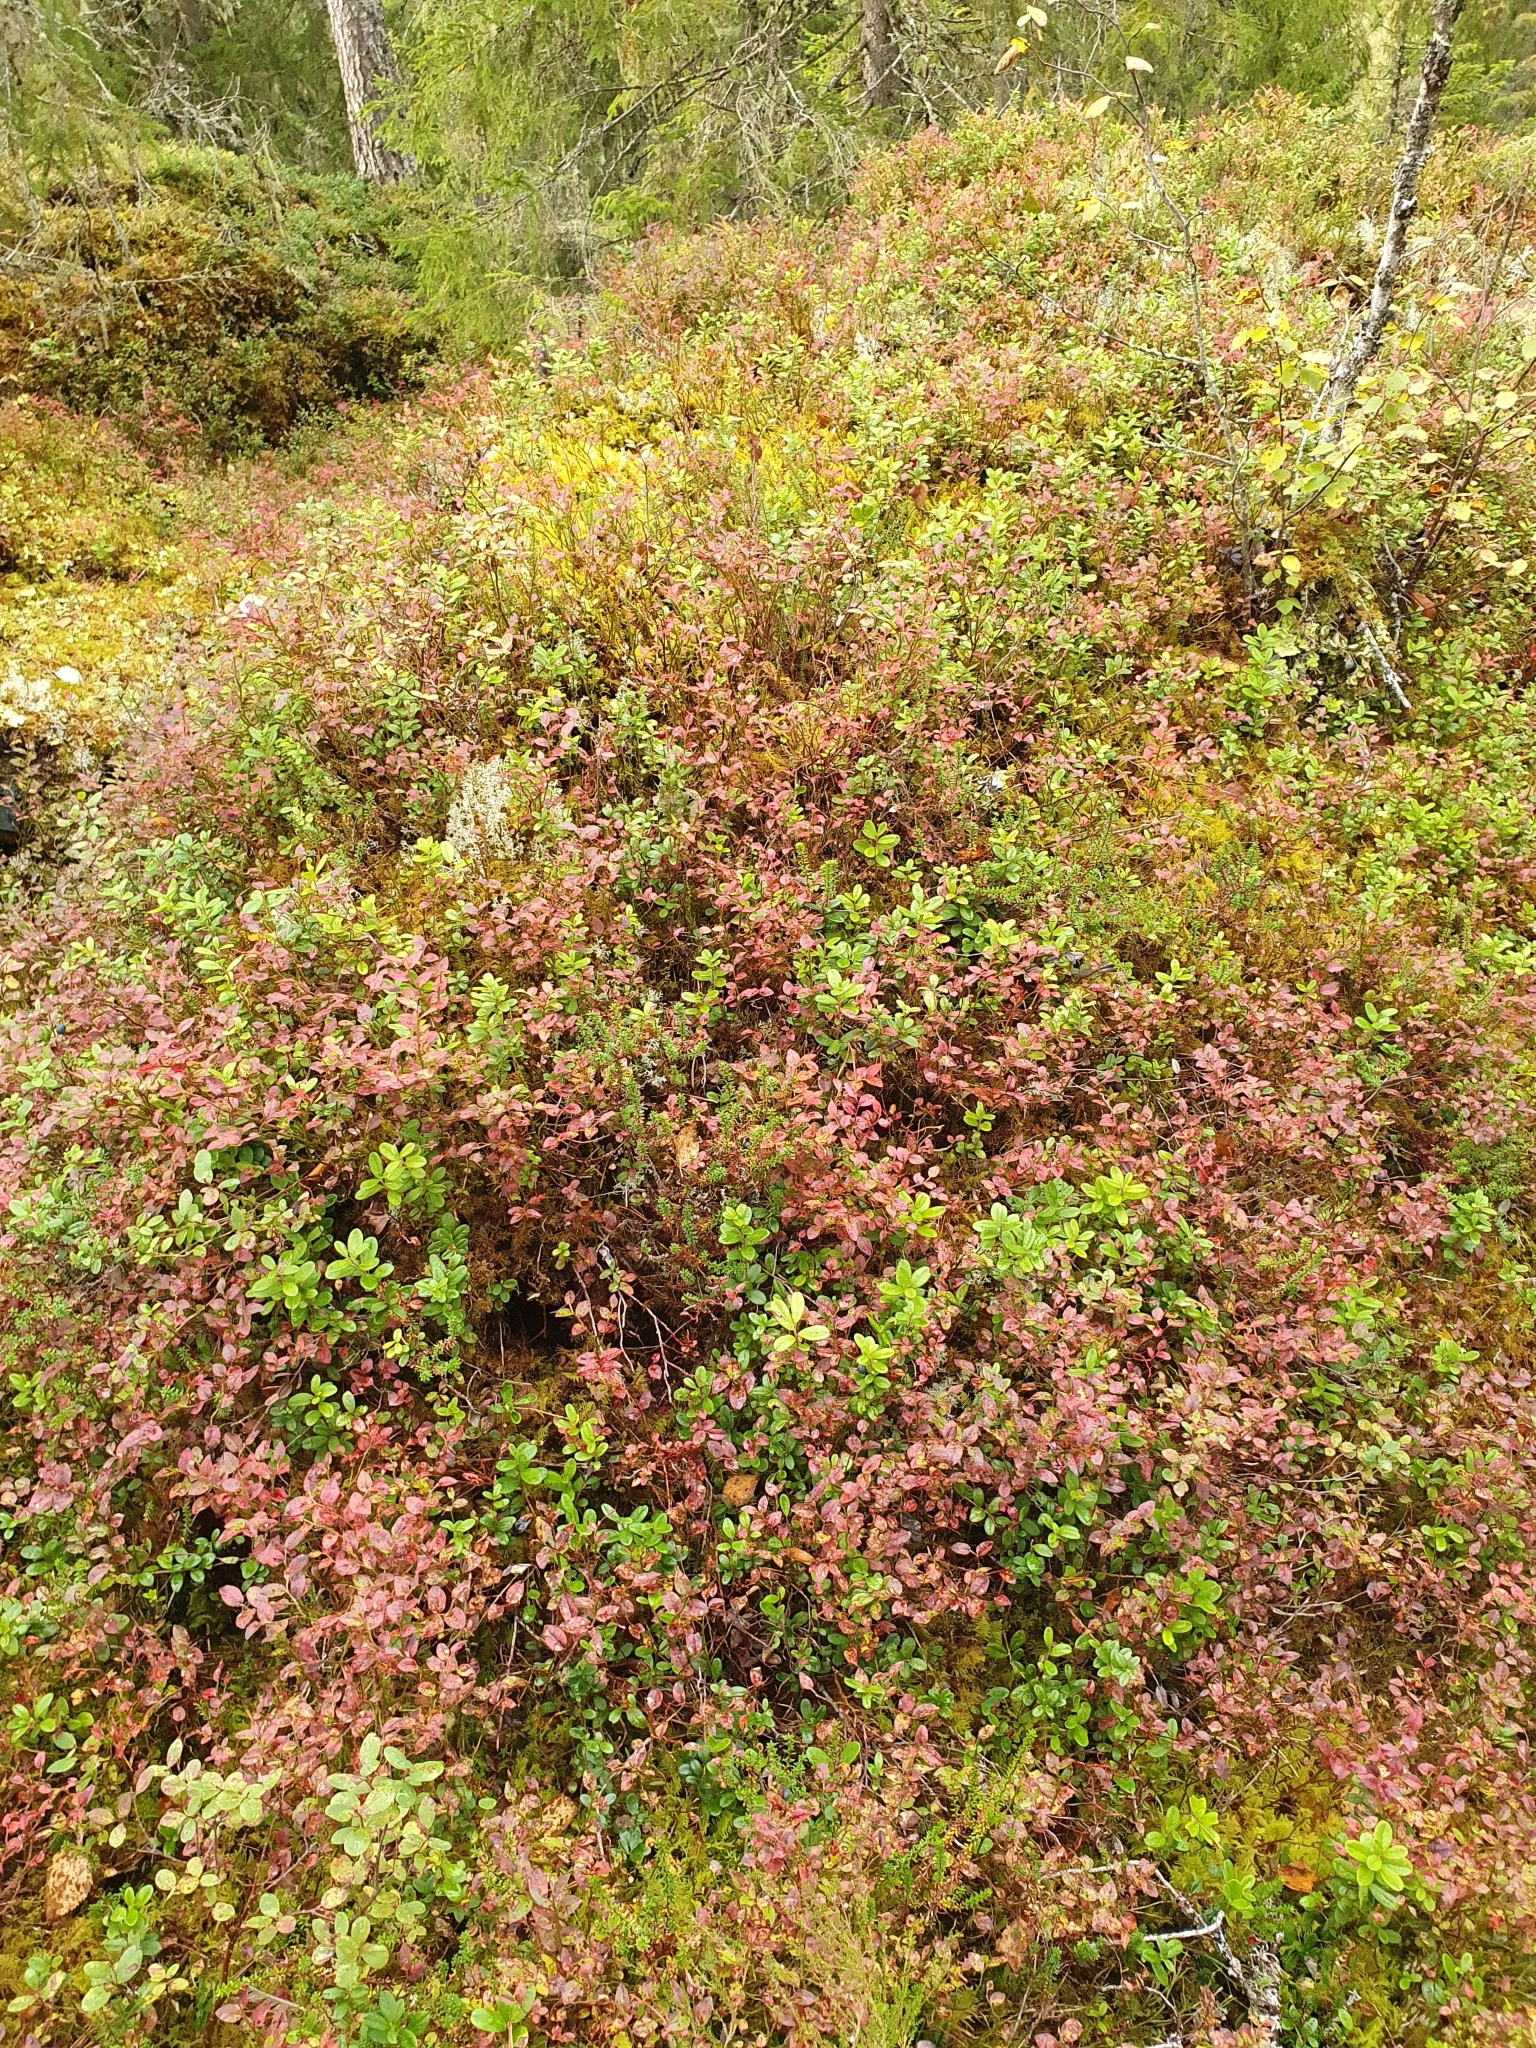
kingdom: Plantae
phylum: Tracheophyta
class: Magnoliopsida
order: Ericales
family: Ericaceae
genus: Vaccinium
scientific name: Vaccinium uliginosum
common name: Bog bilberry
